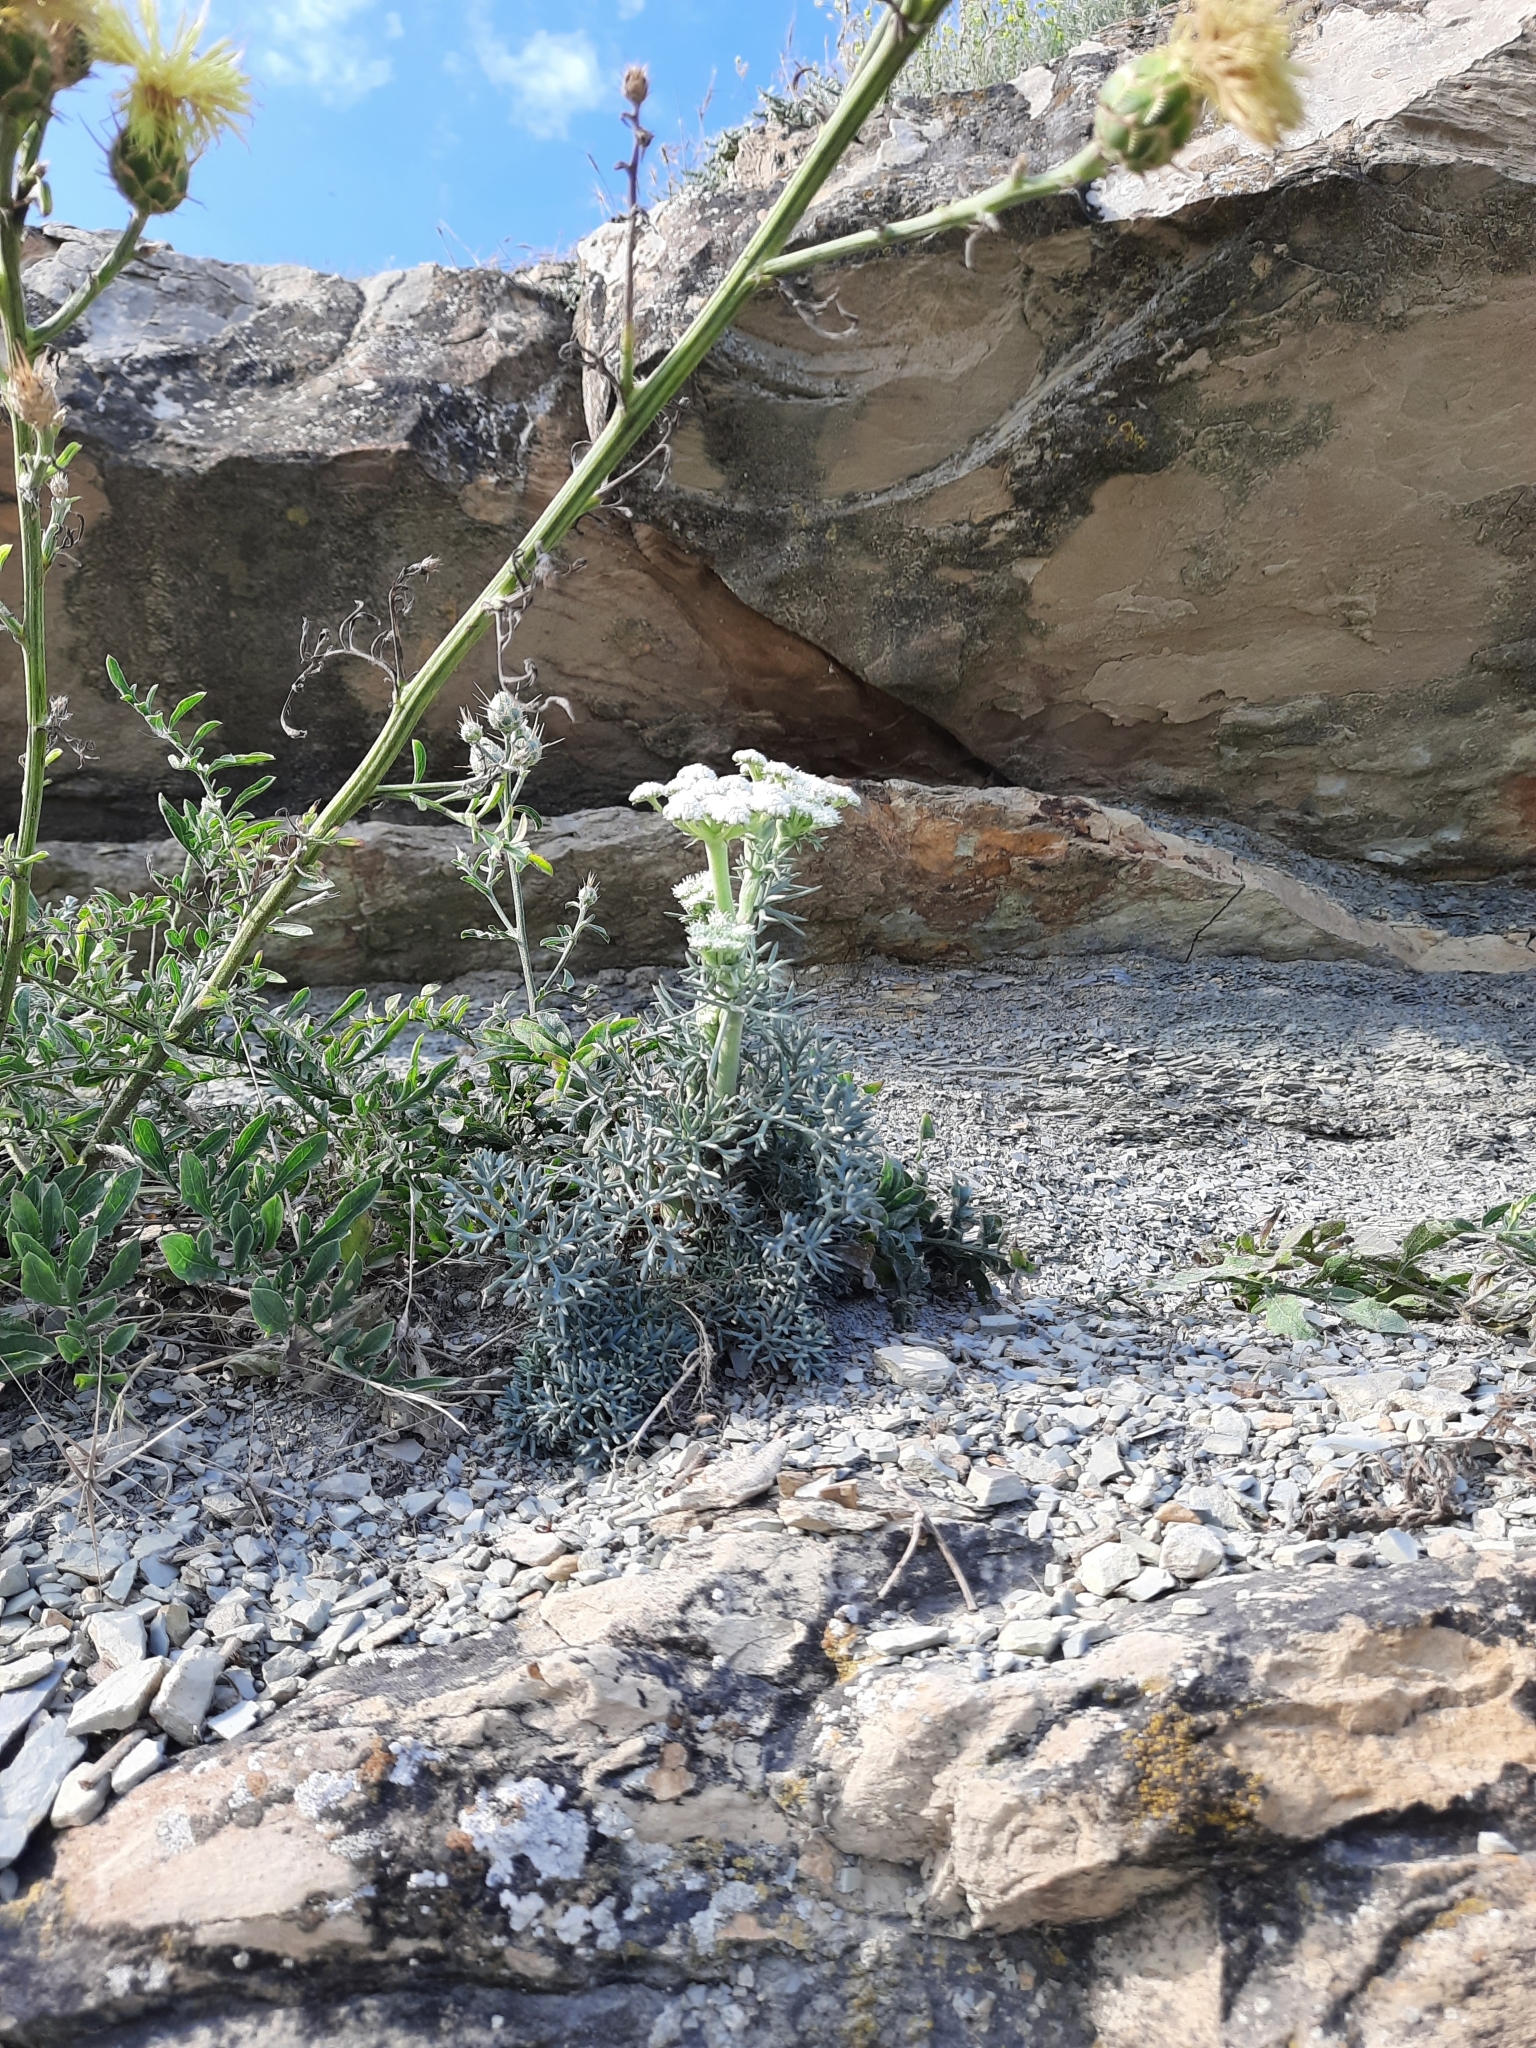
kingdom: Plantae
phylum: Tracheophyta
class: Magnoliopsida
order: Apiales
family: Apiaceae
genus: Seseli
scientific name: Seseli ponticum
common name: Pontic seseli
